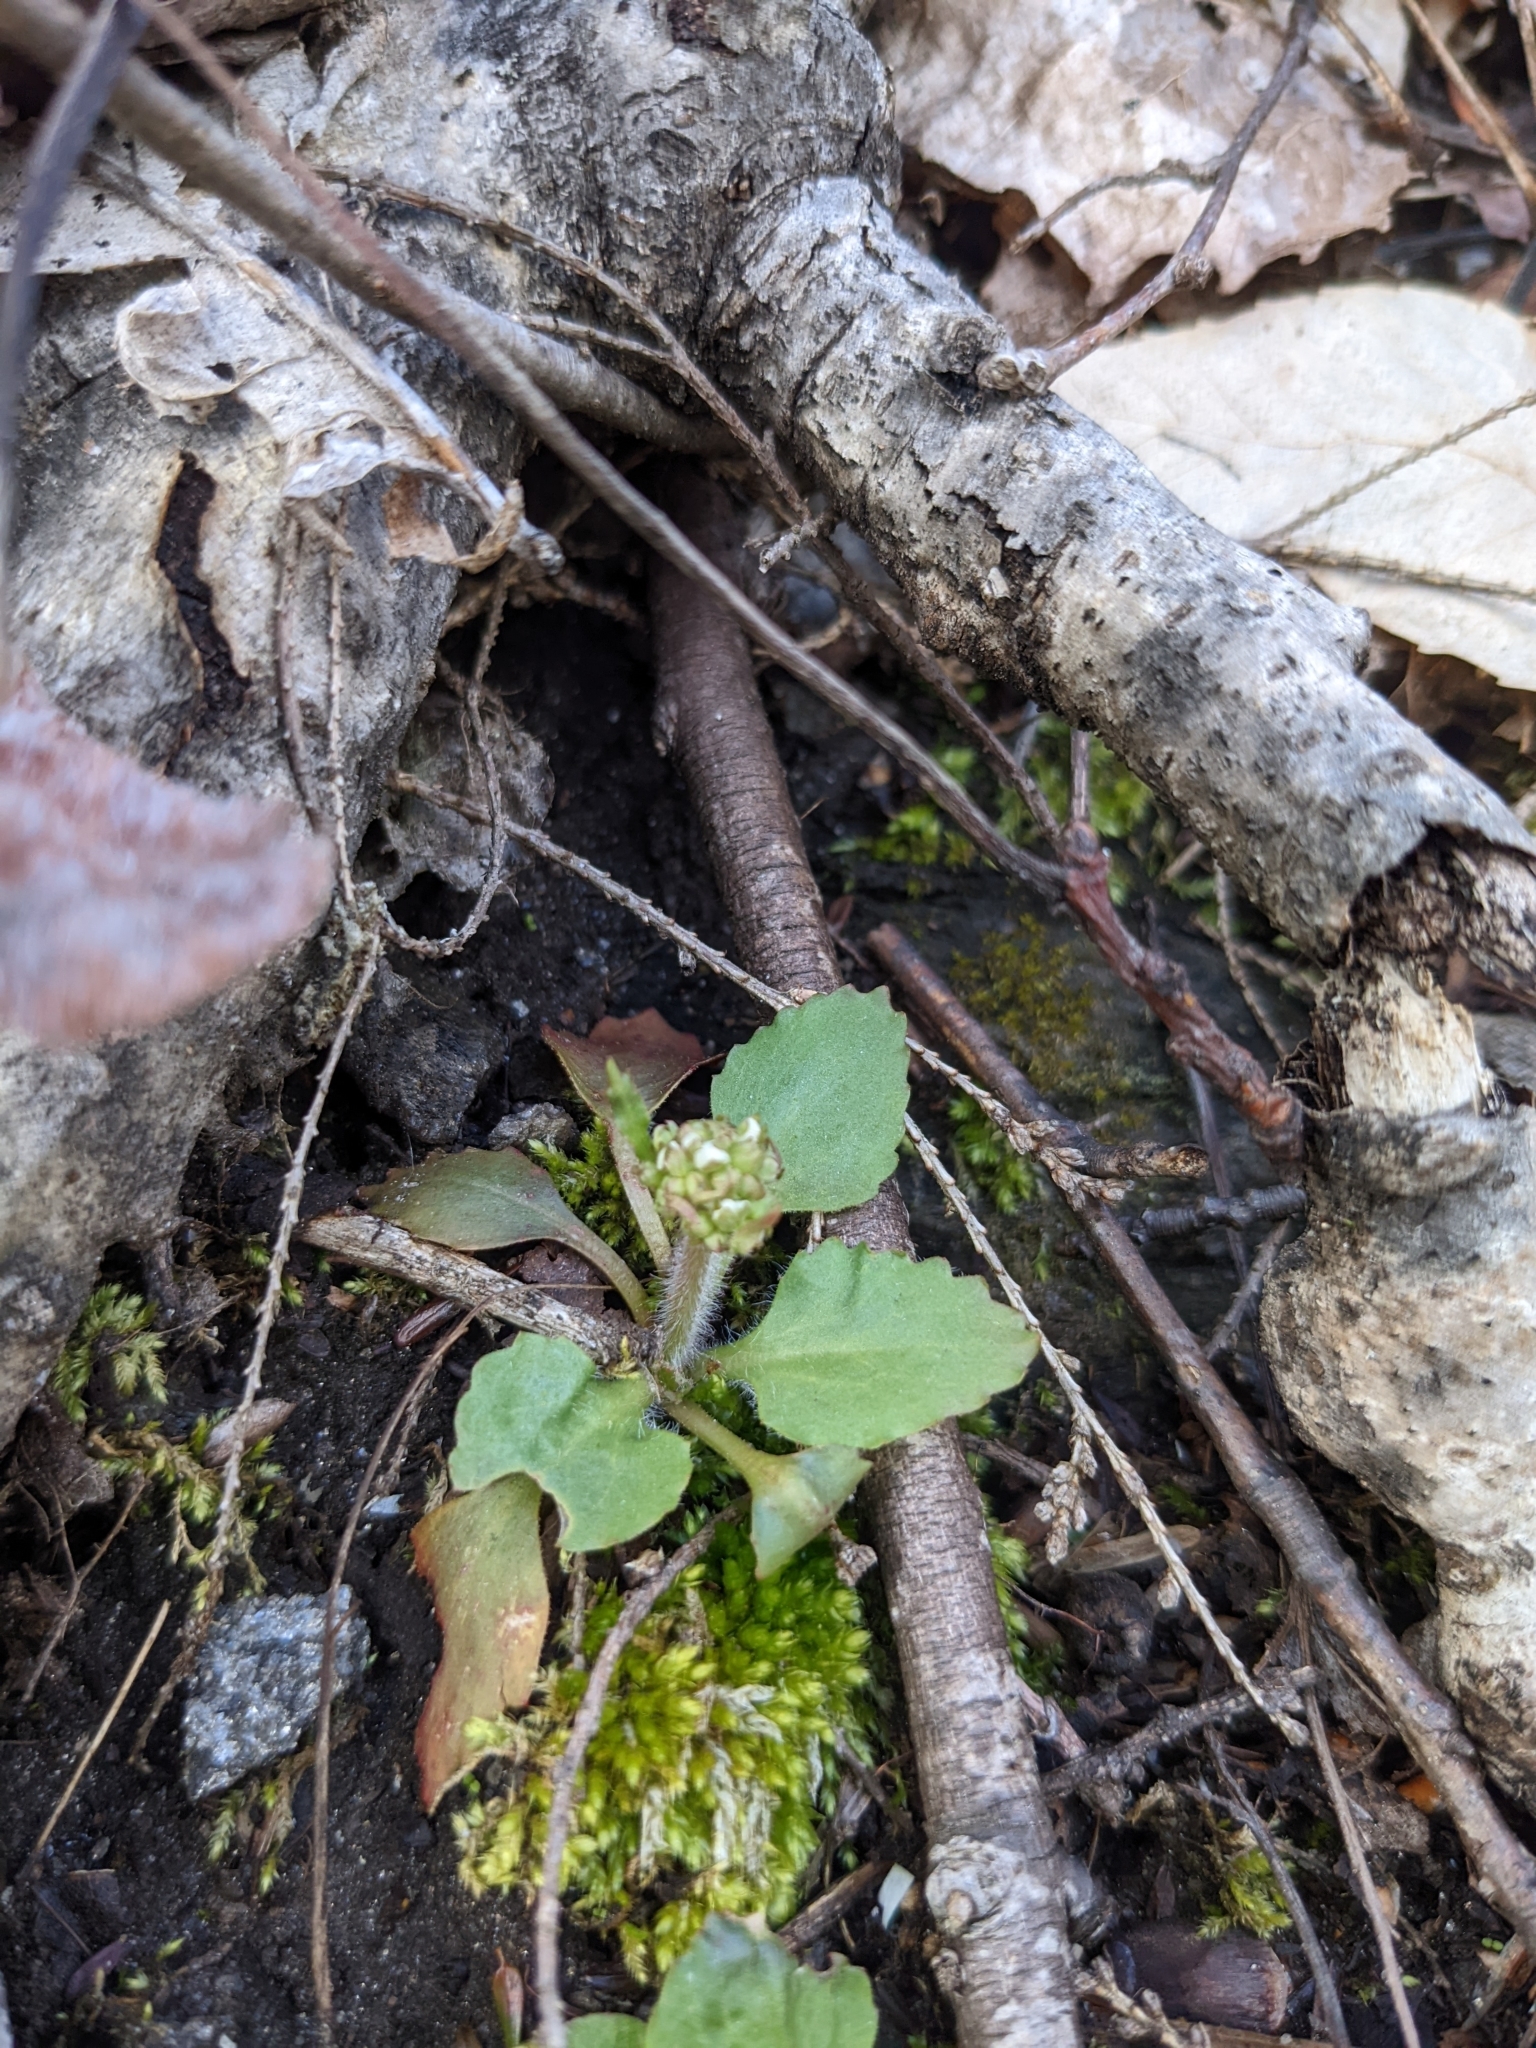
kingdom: Plantae
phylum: Tracheophyta
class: Magnoliopsida
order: Saxifragales
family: Saxifragaceae
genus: Micranthes
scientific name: Micranthes virginiensis
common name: Early saxifrage
